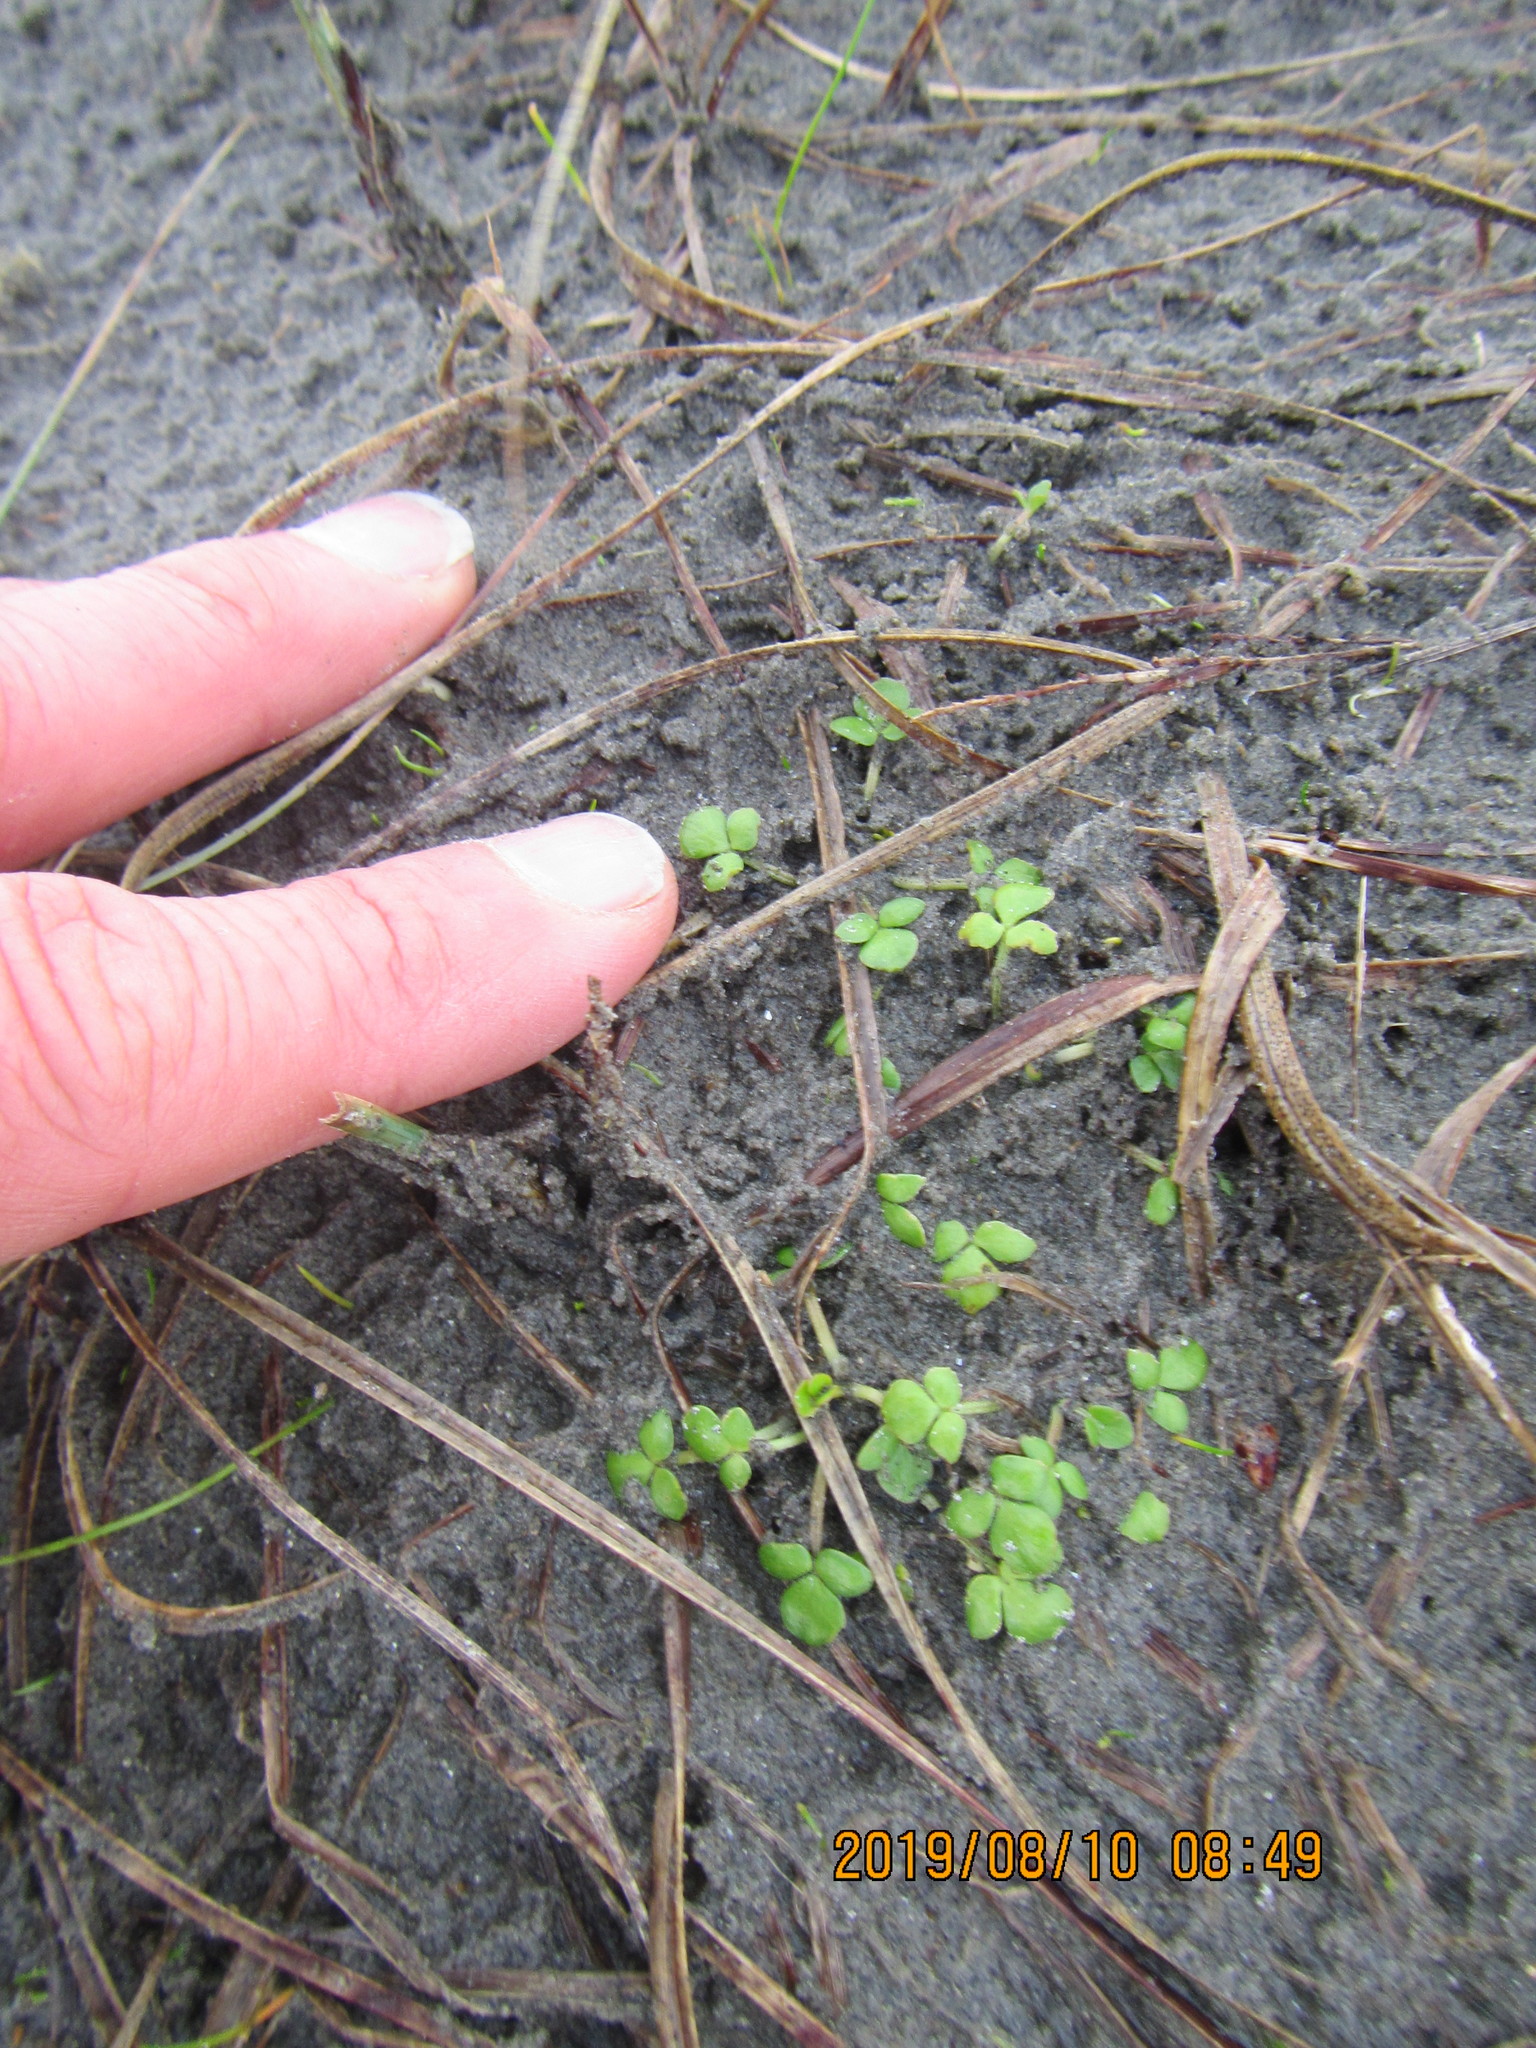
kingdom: Plantae
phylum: Tracheophyta
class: Magnoliopsida
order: Ranunculales
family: Ranunculaceae
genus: Ranunculus
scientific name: Ranunculus acaulis
